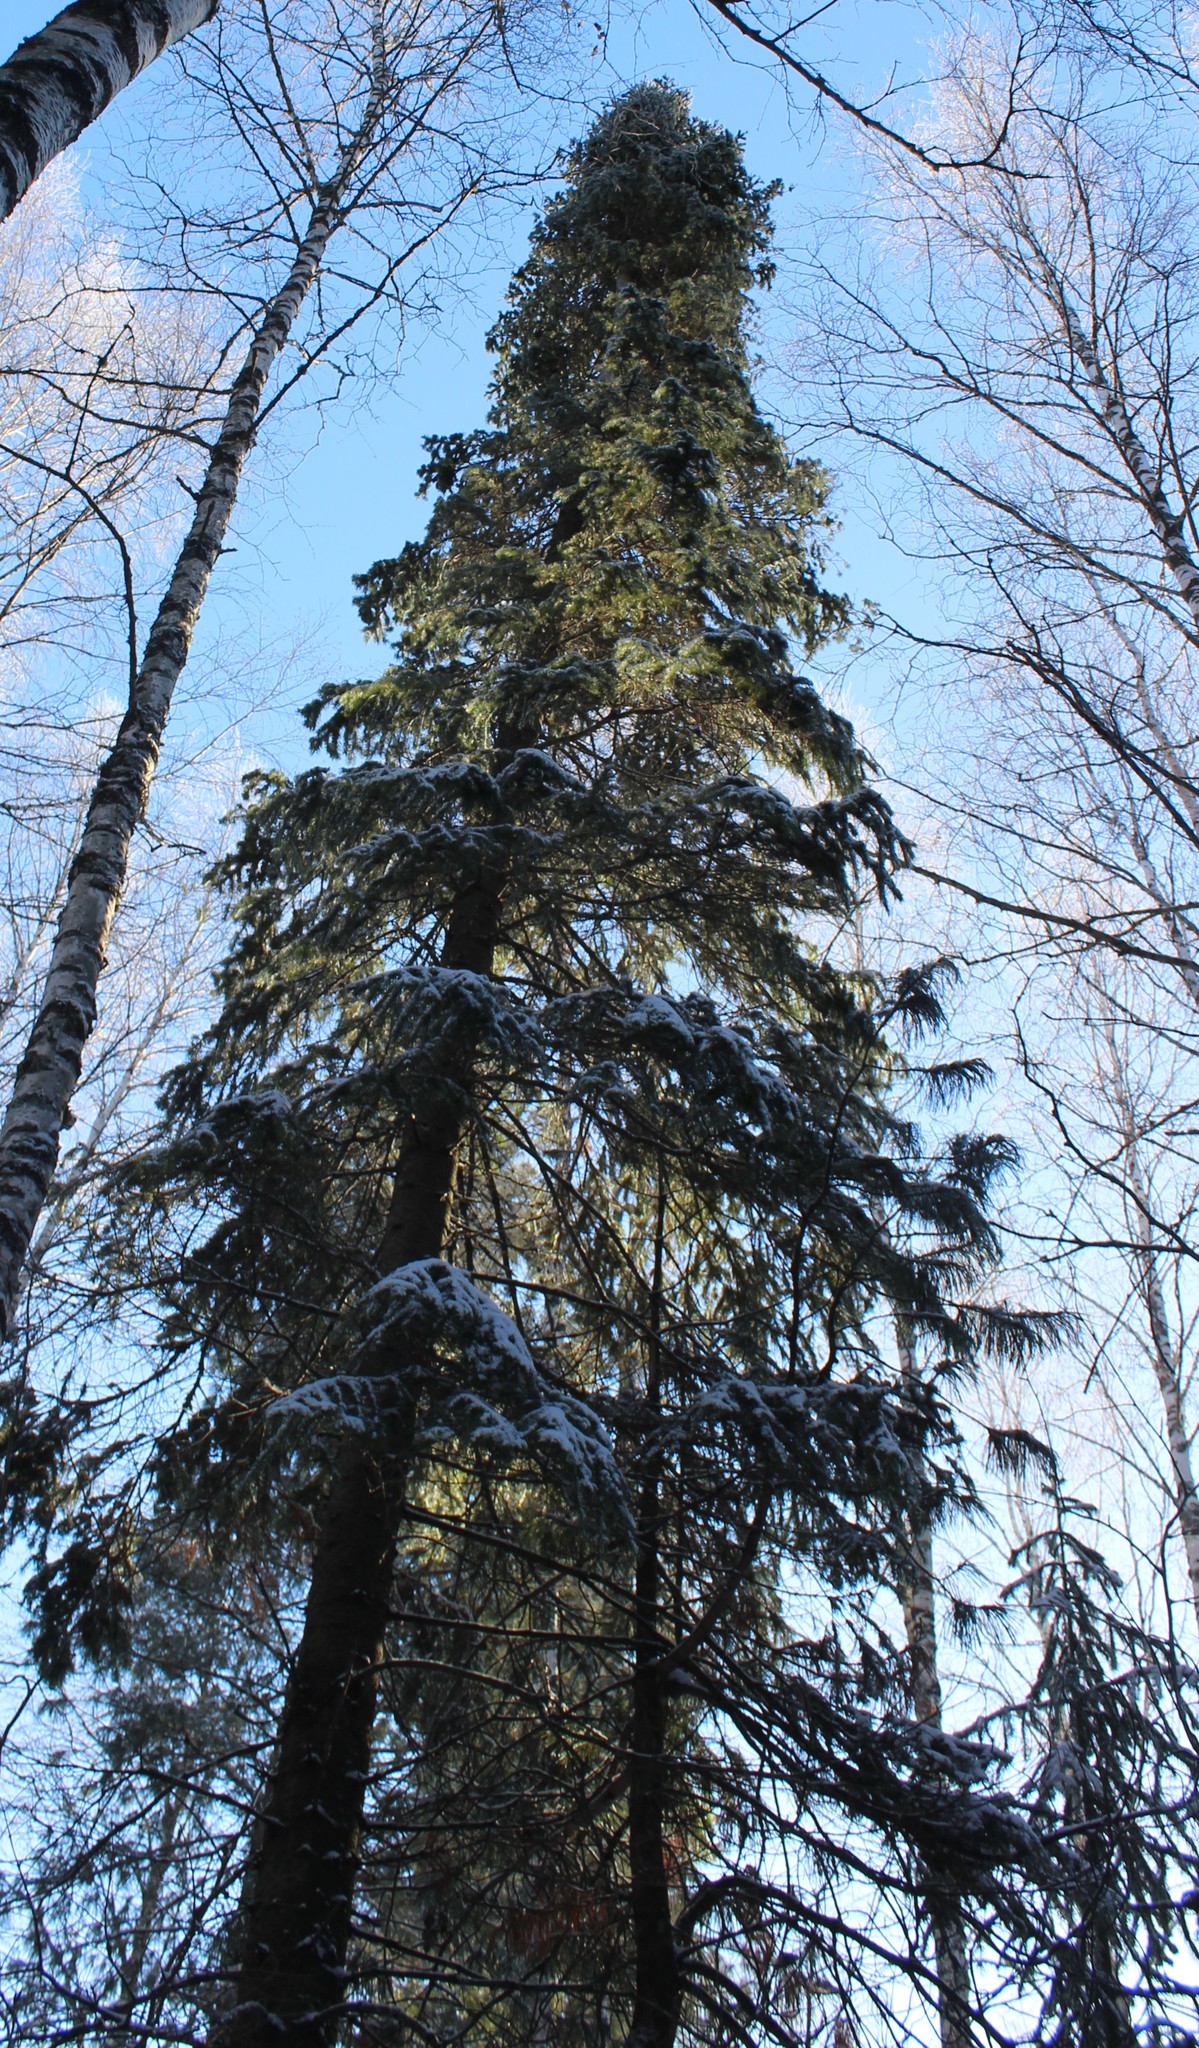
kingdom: Plantae
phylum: Tracheophyta
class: Pinopsida
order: Pinales
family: Pinaceae
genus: Picea
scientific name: Picea obovata
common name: Siberian spruce
